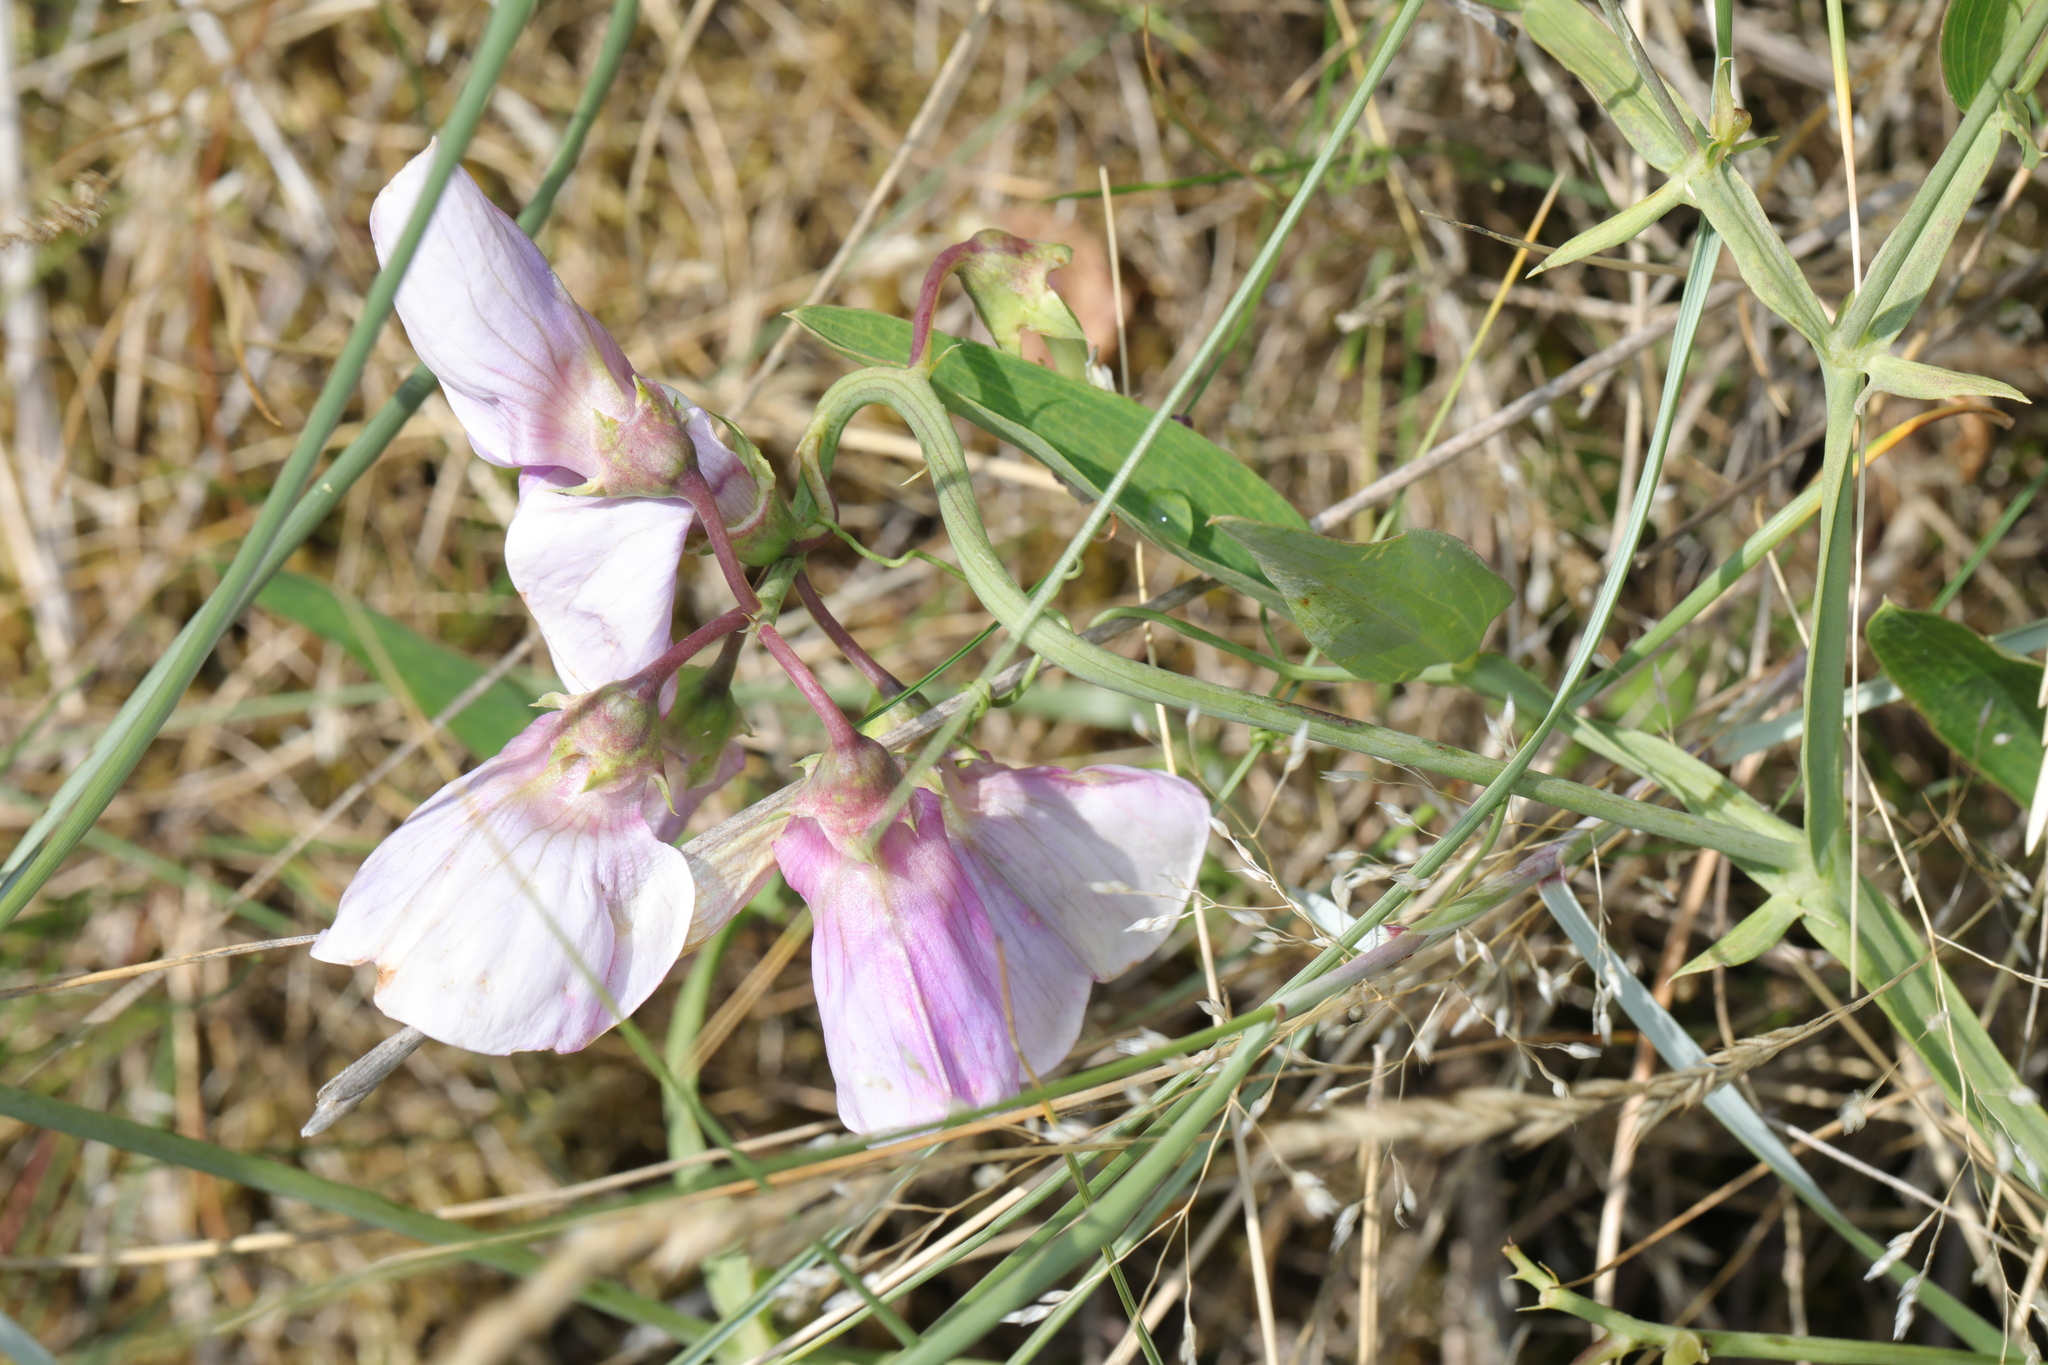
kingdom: Plantae
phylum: Tracheophyta
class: Magnoliopsida
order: Fabales
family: Fabaceae
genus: Lathyrus
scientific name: Lathyrus latifolius
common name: Perennial pea
